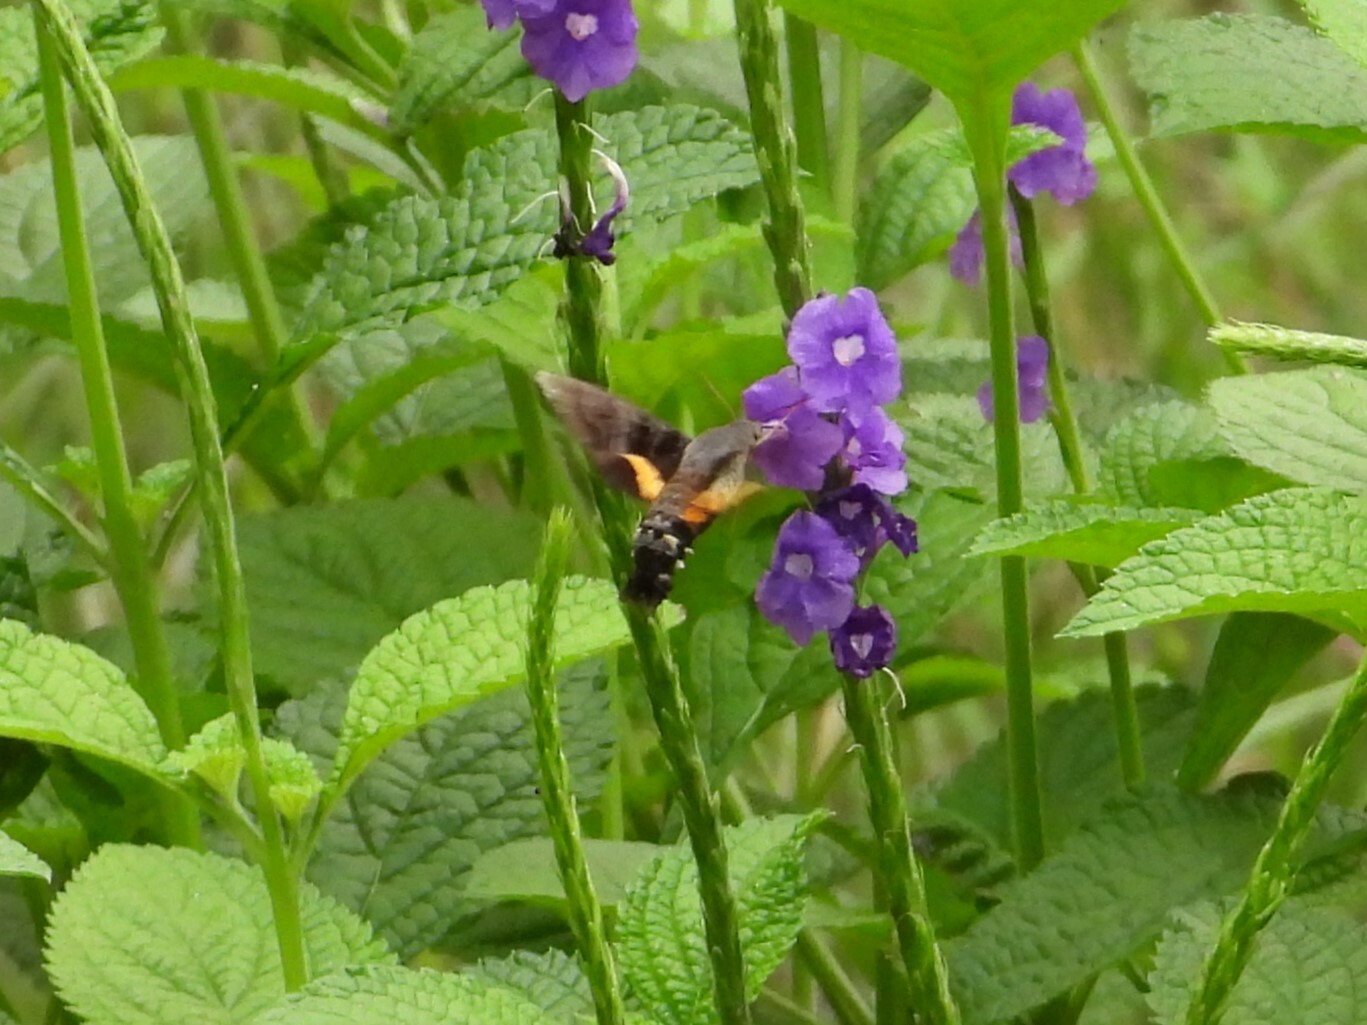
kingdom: Animalia
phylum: Arthropoda
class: Insecta
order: Lepidoptera
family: Sphingidae
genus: Aellopos
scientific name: Aellopos ceculus
